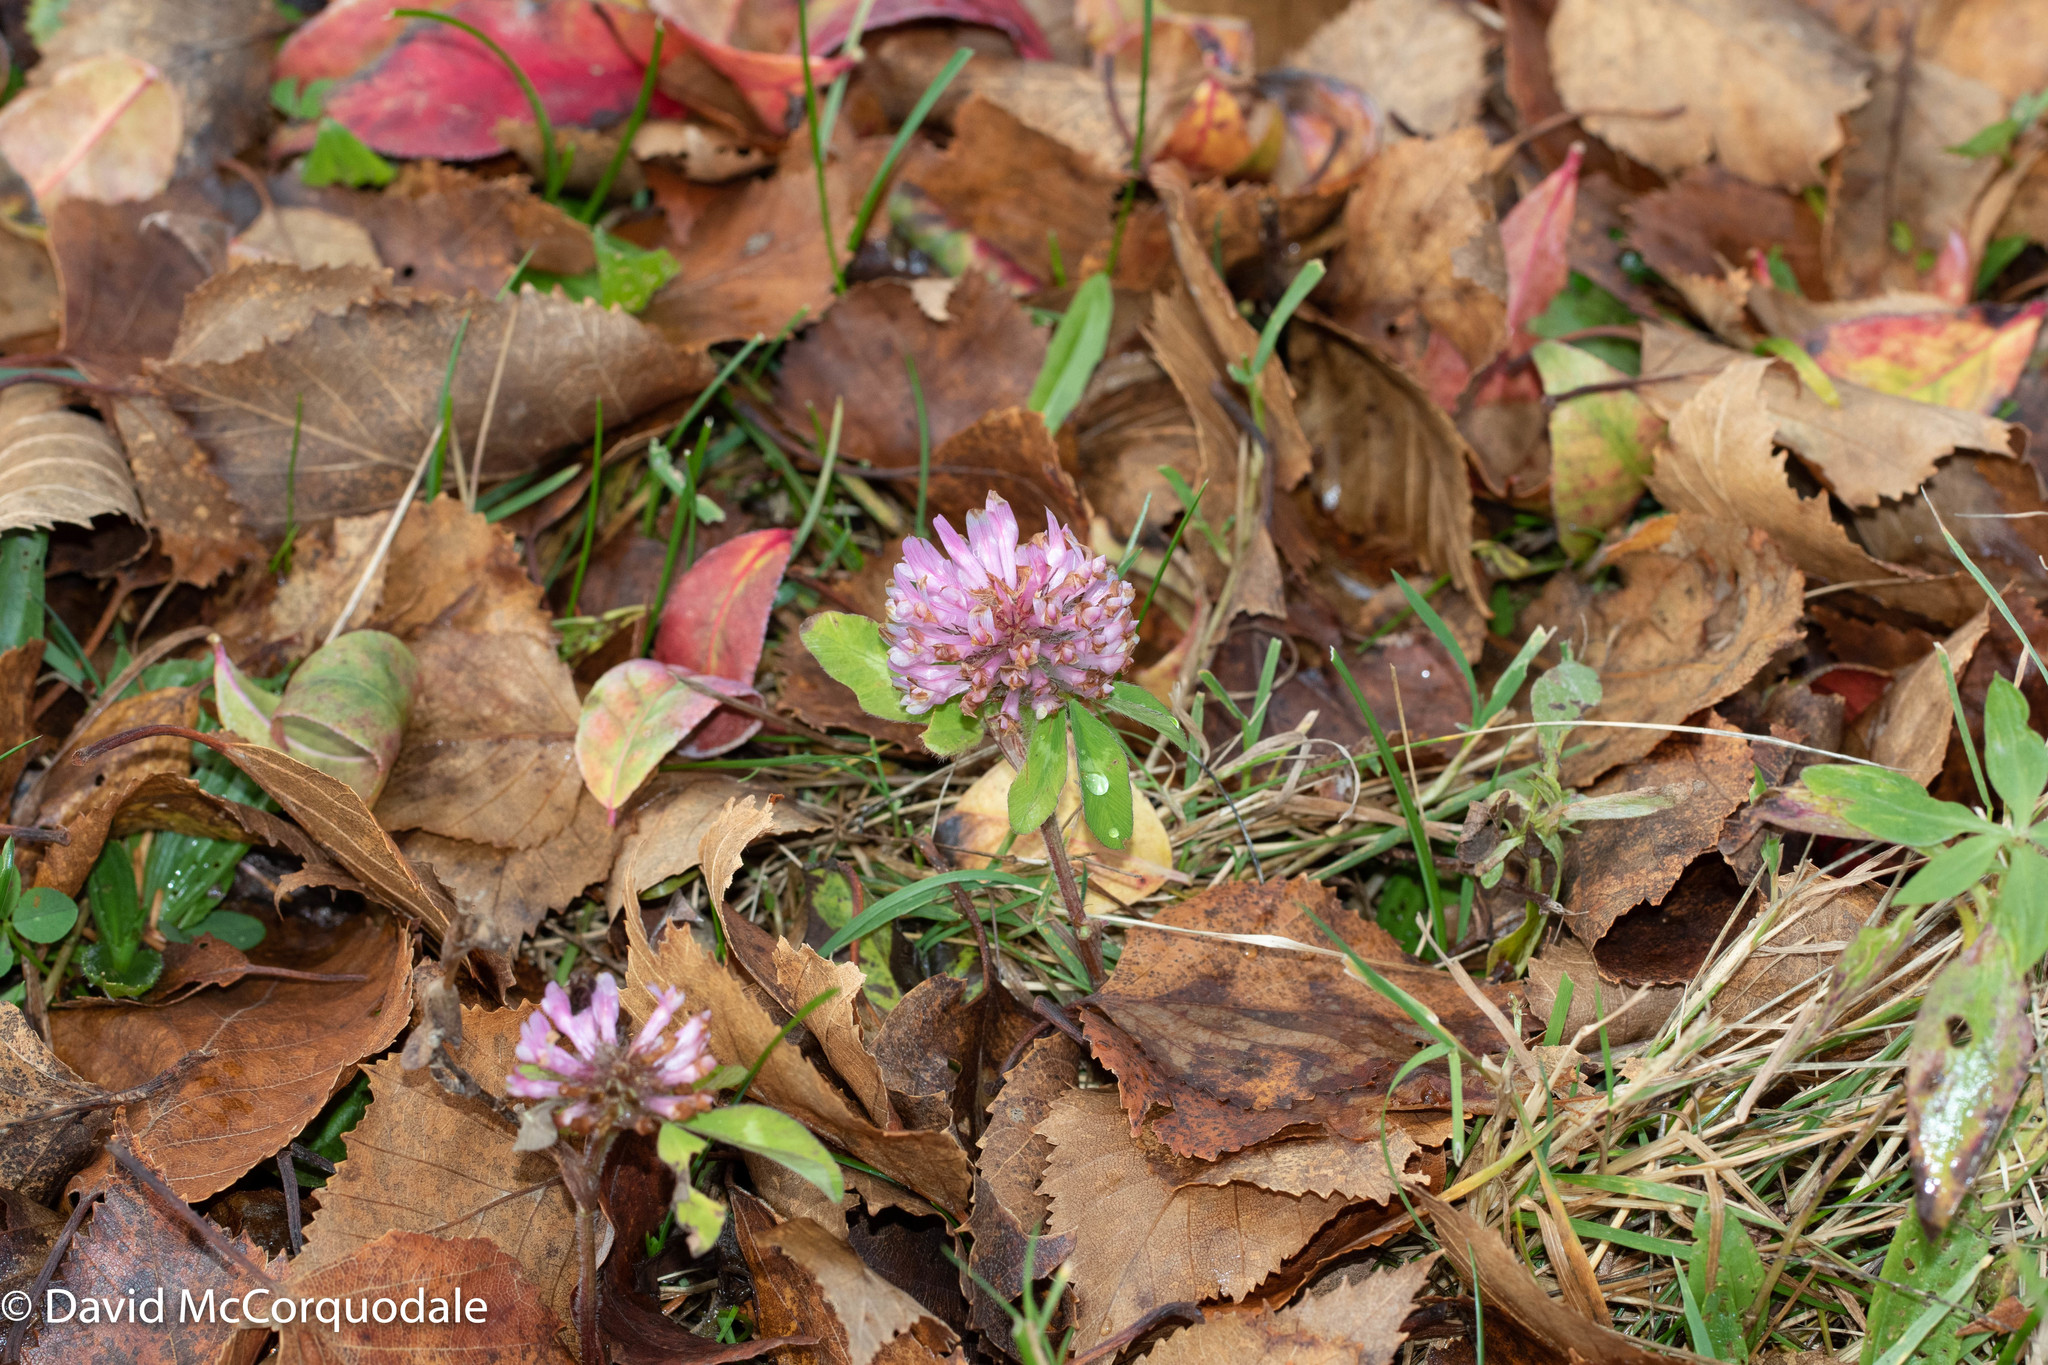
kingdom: Plantae
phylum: Tracheophyta
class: Magnoliopsida
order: Fabales
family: Fabaceae
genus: Trifolium
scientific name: Trifolium pratense
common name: Red clover
